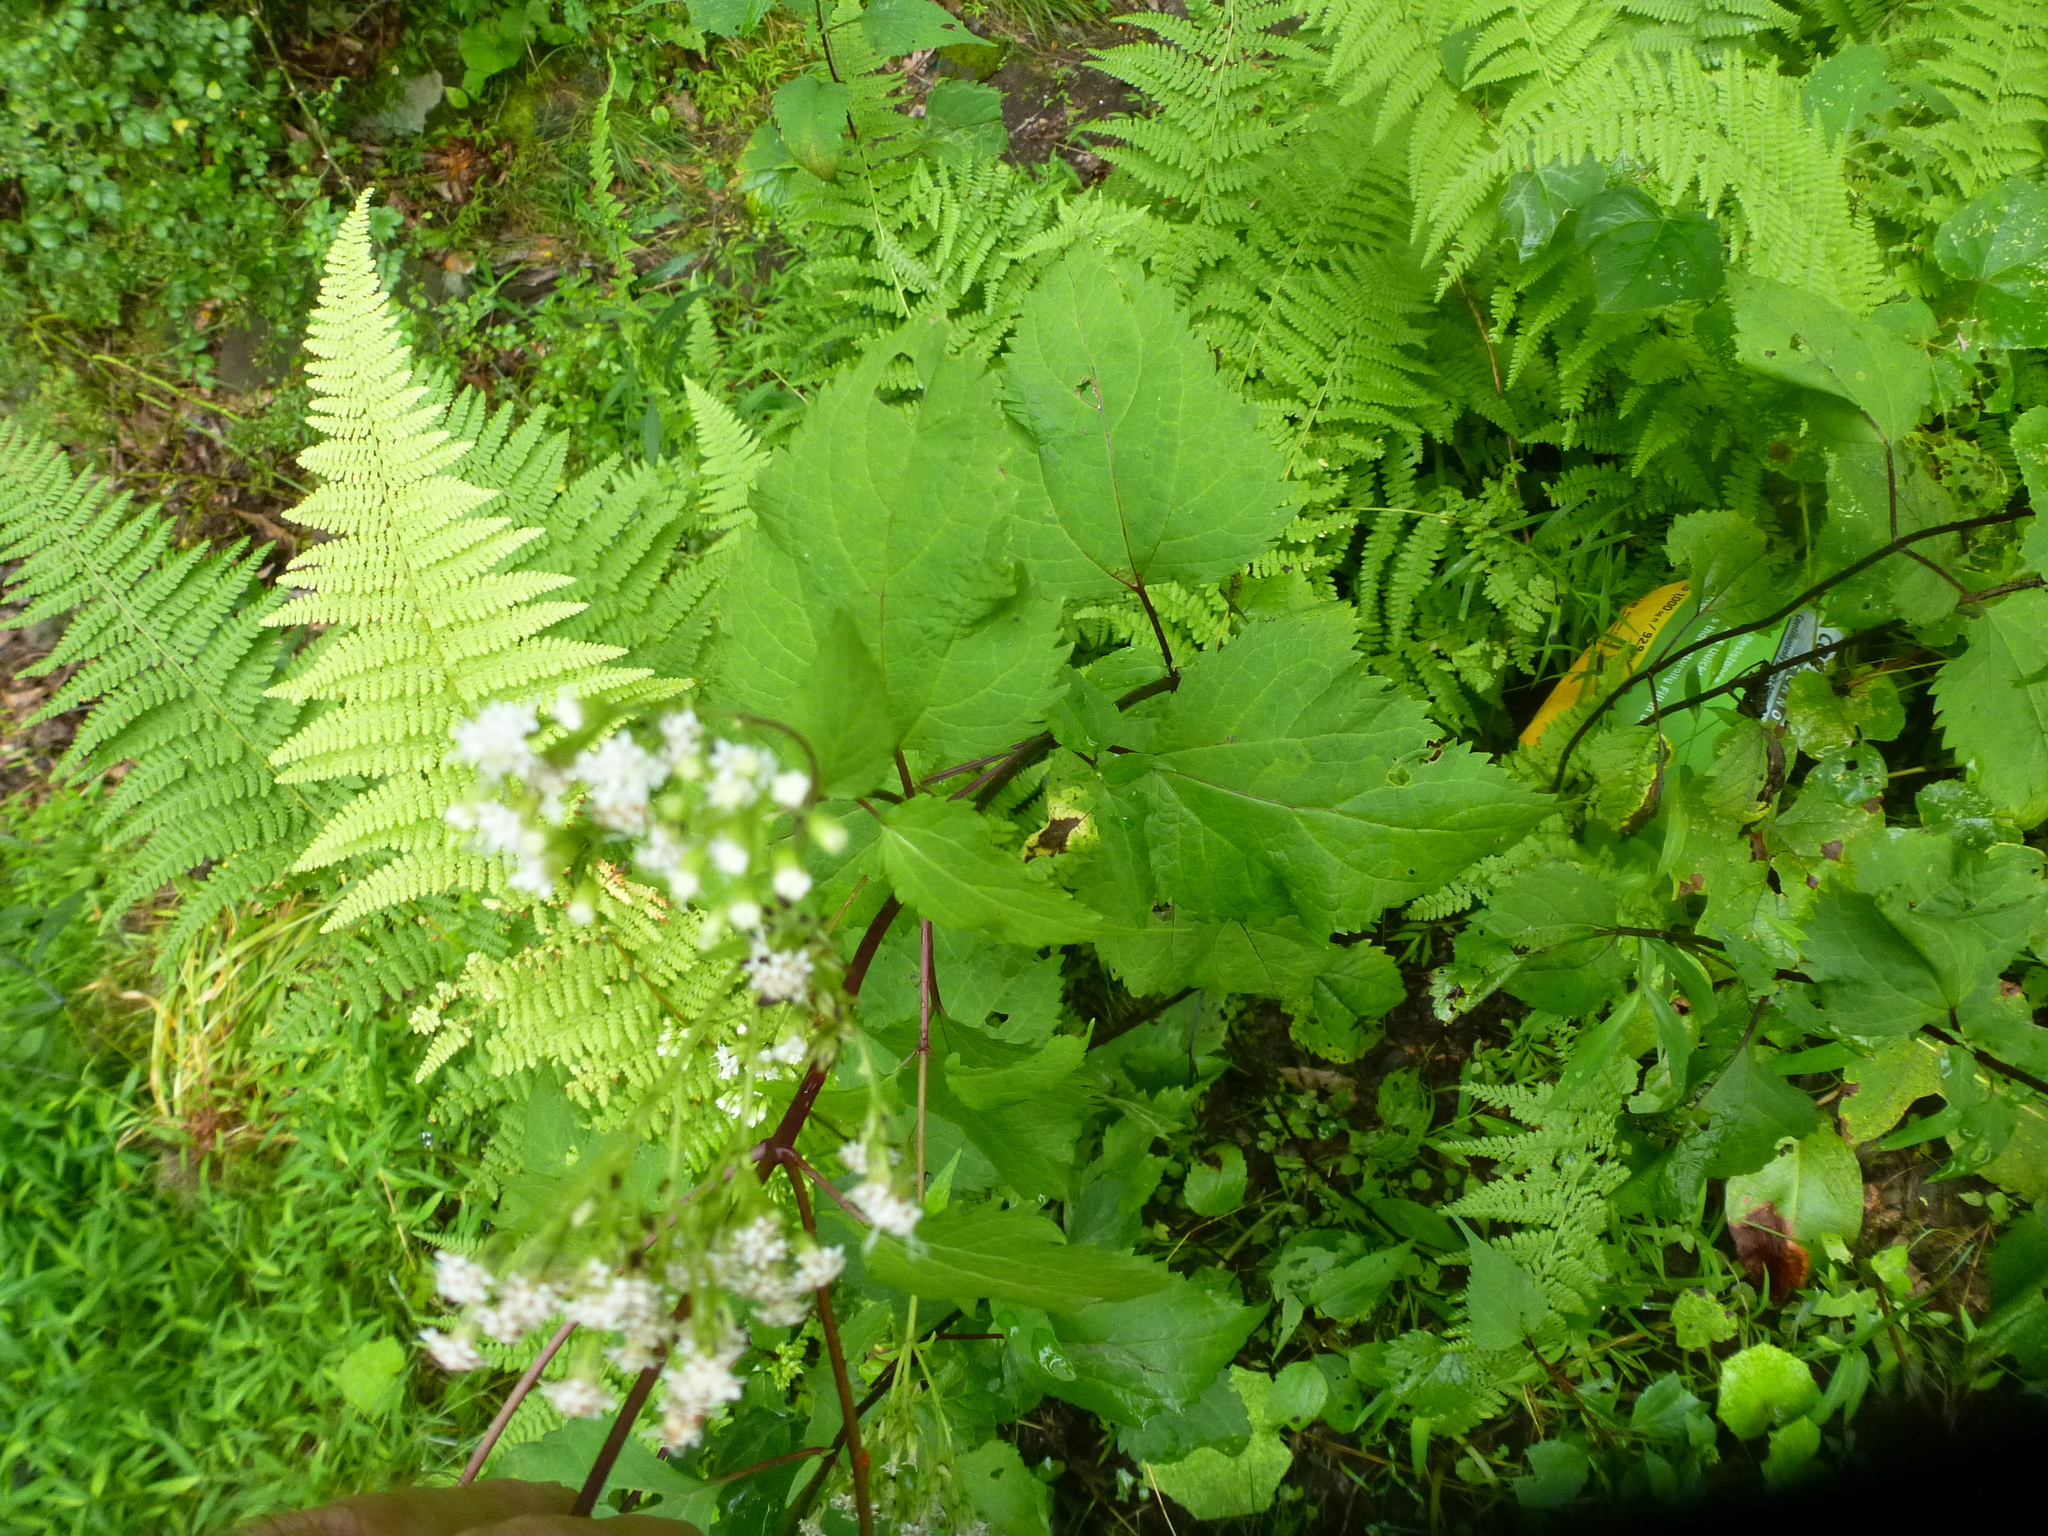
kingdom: Plantae
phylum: Tracheophyta
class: Magnoliopsida
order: Asterales
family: Asteraceae
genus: Ageratina
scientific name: Ageratina altissima
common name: White snakeroot
